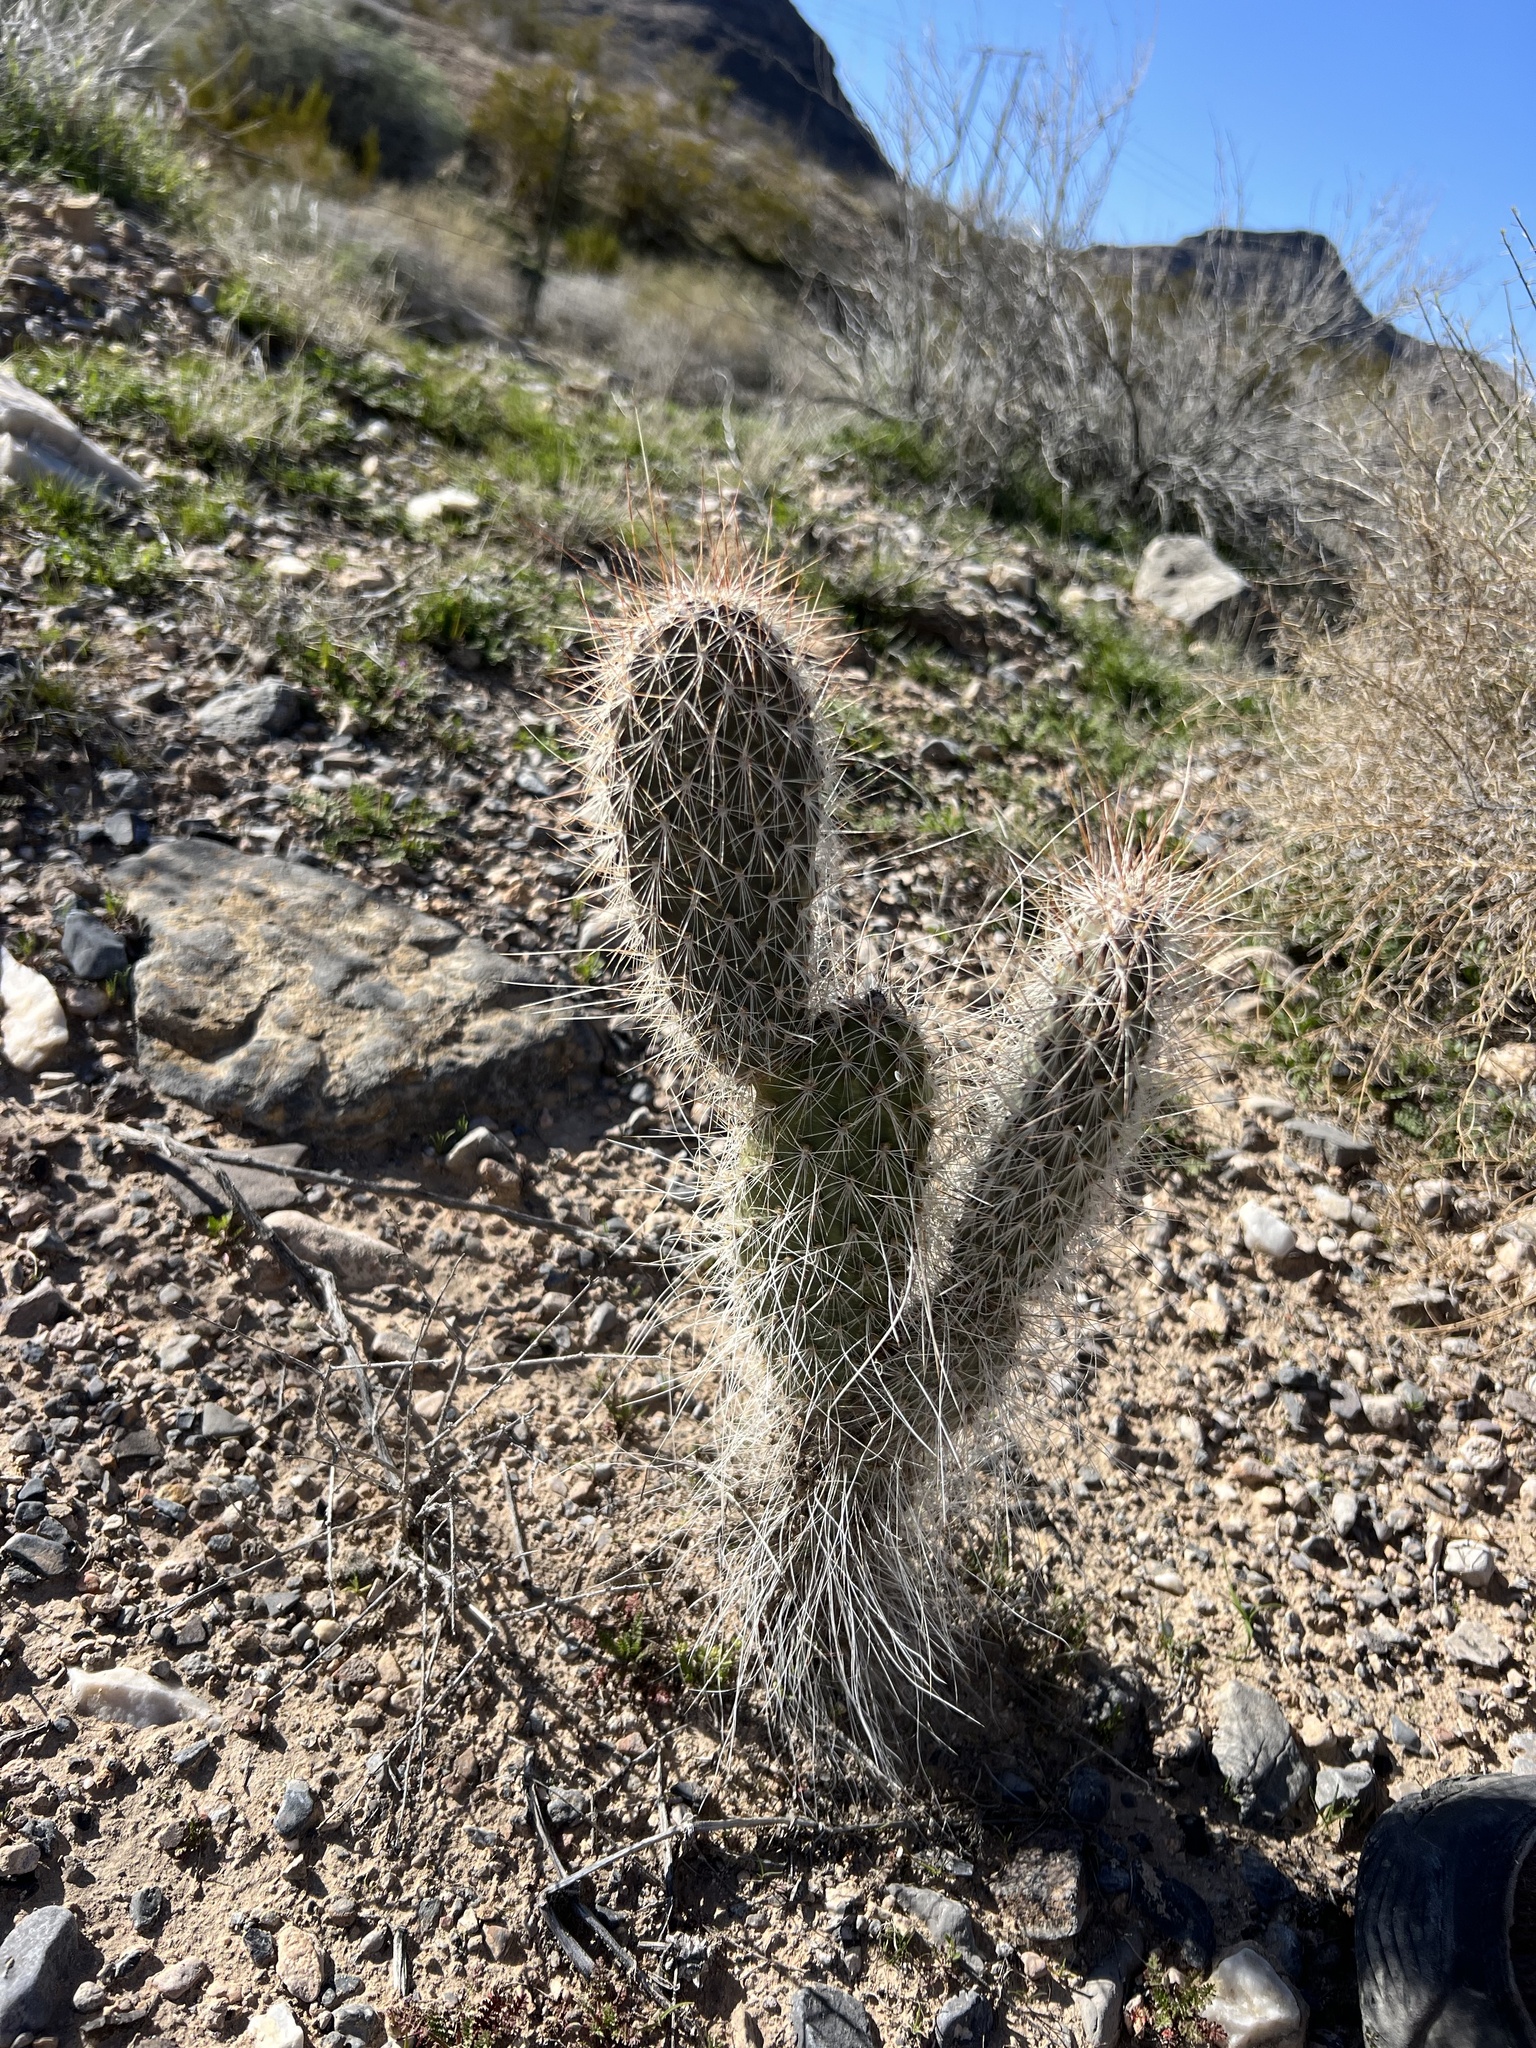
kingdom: Plantae
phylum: Tracheophyta
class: Magnoliopsida
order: Caryophyllales
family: Cactaceae
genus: Opuntia
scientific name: Opuntia polyacantha
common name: Plains prickly-pear
